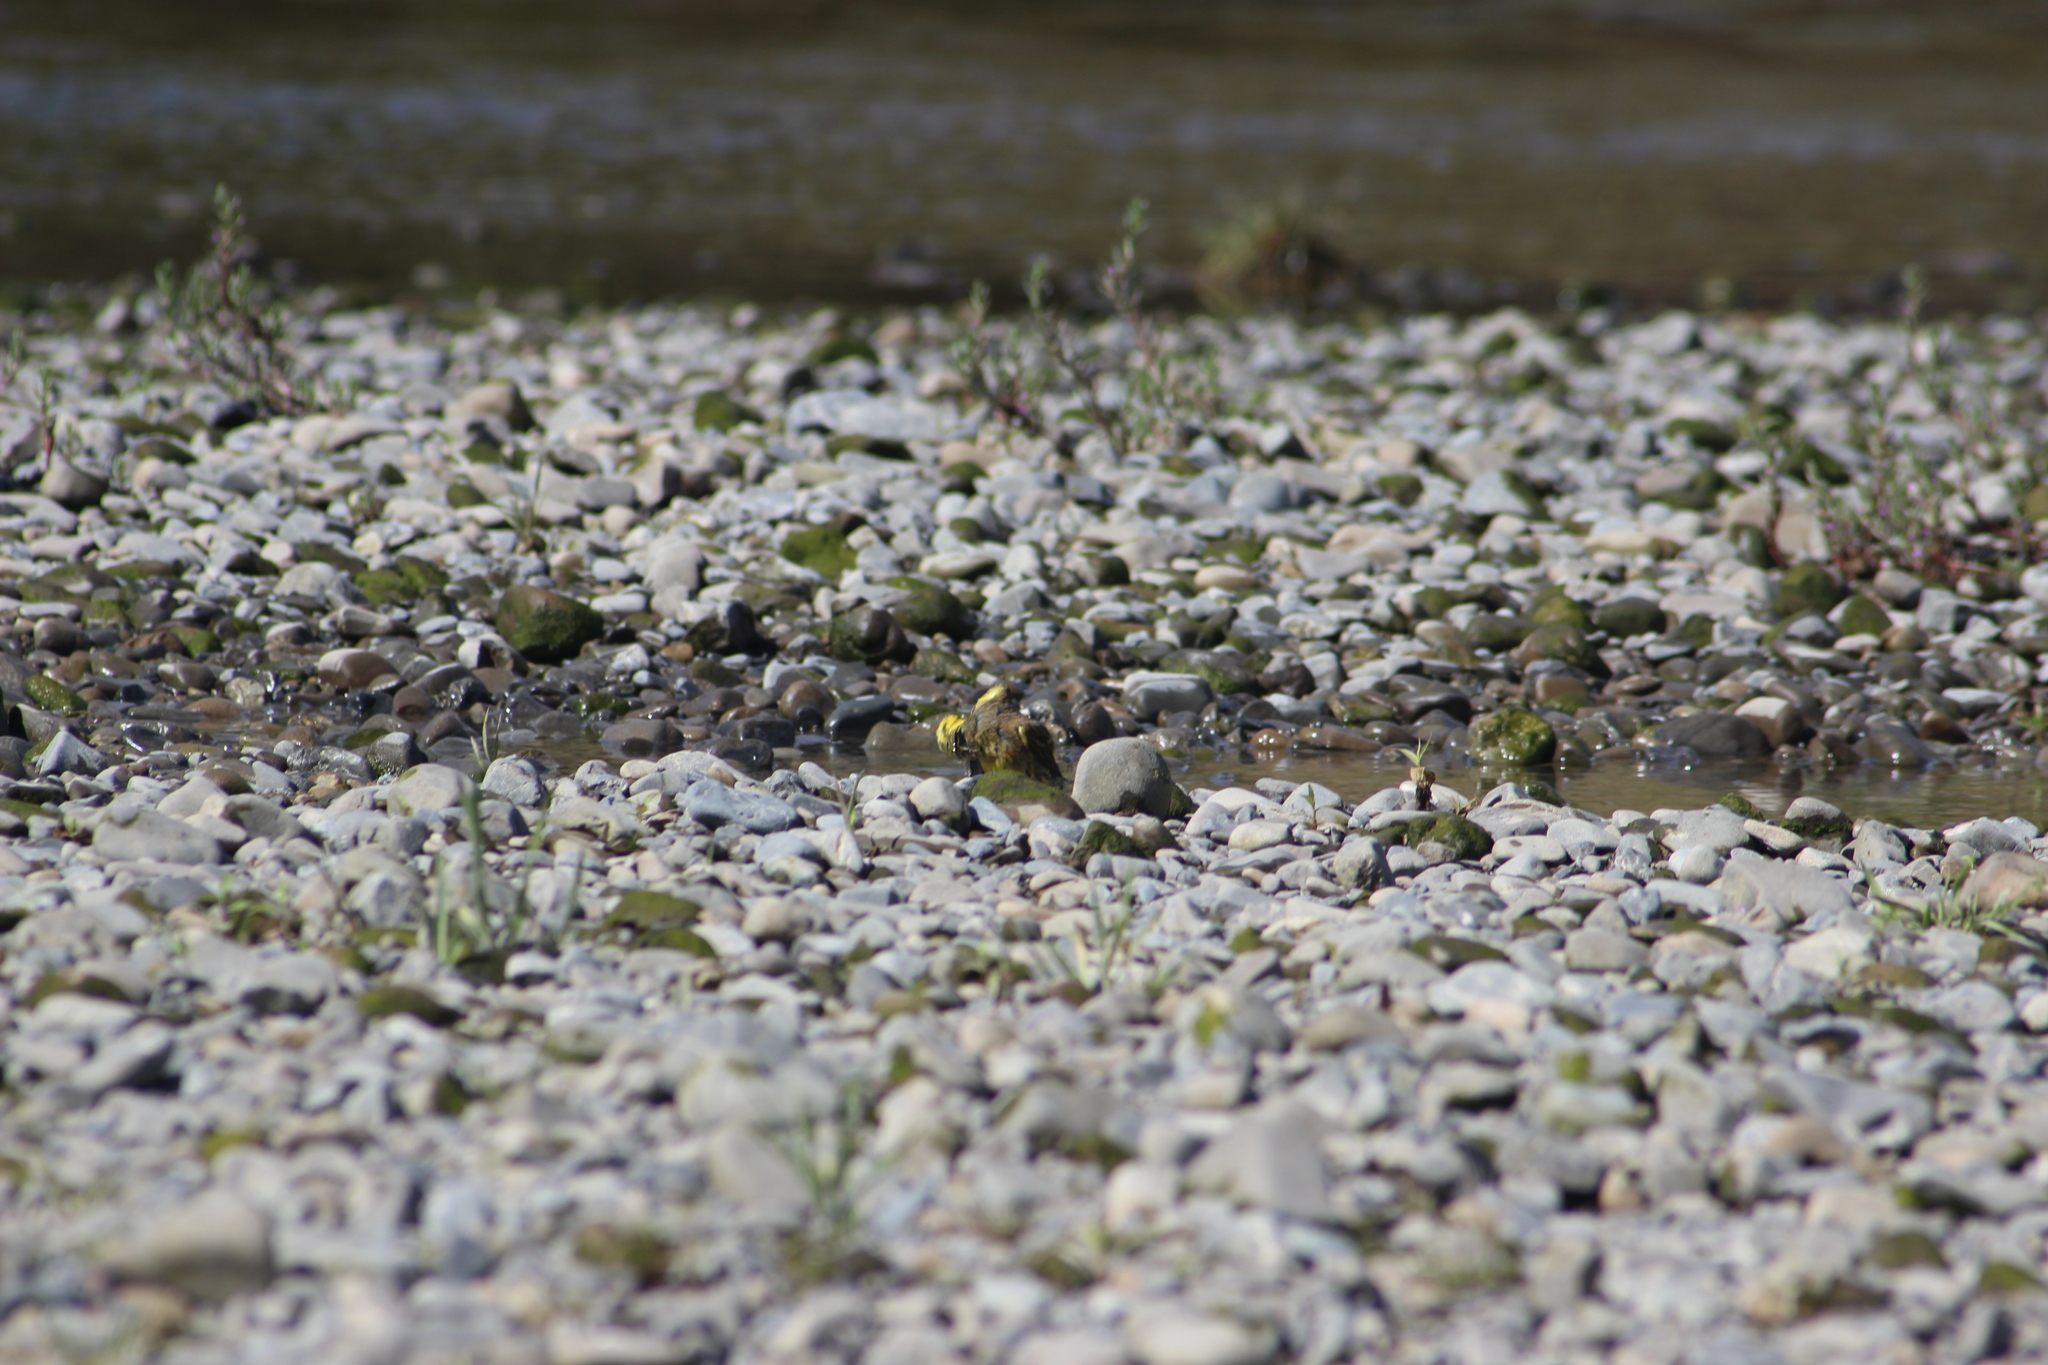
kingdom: Animalia
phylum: Chordata
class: Aves
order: Passeriformes
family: Emberizidae
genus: Emberiza
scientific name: Emberiza citrinella
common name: Yellowhammer
